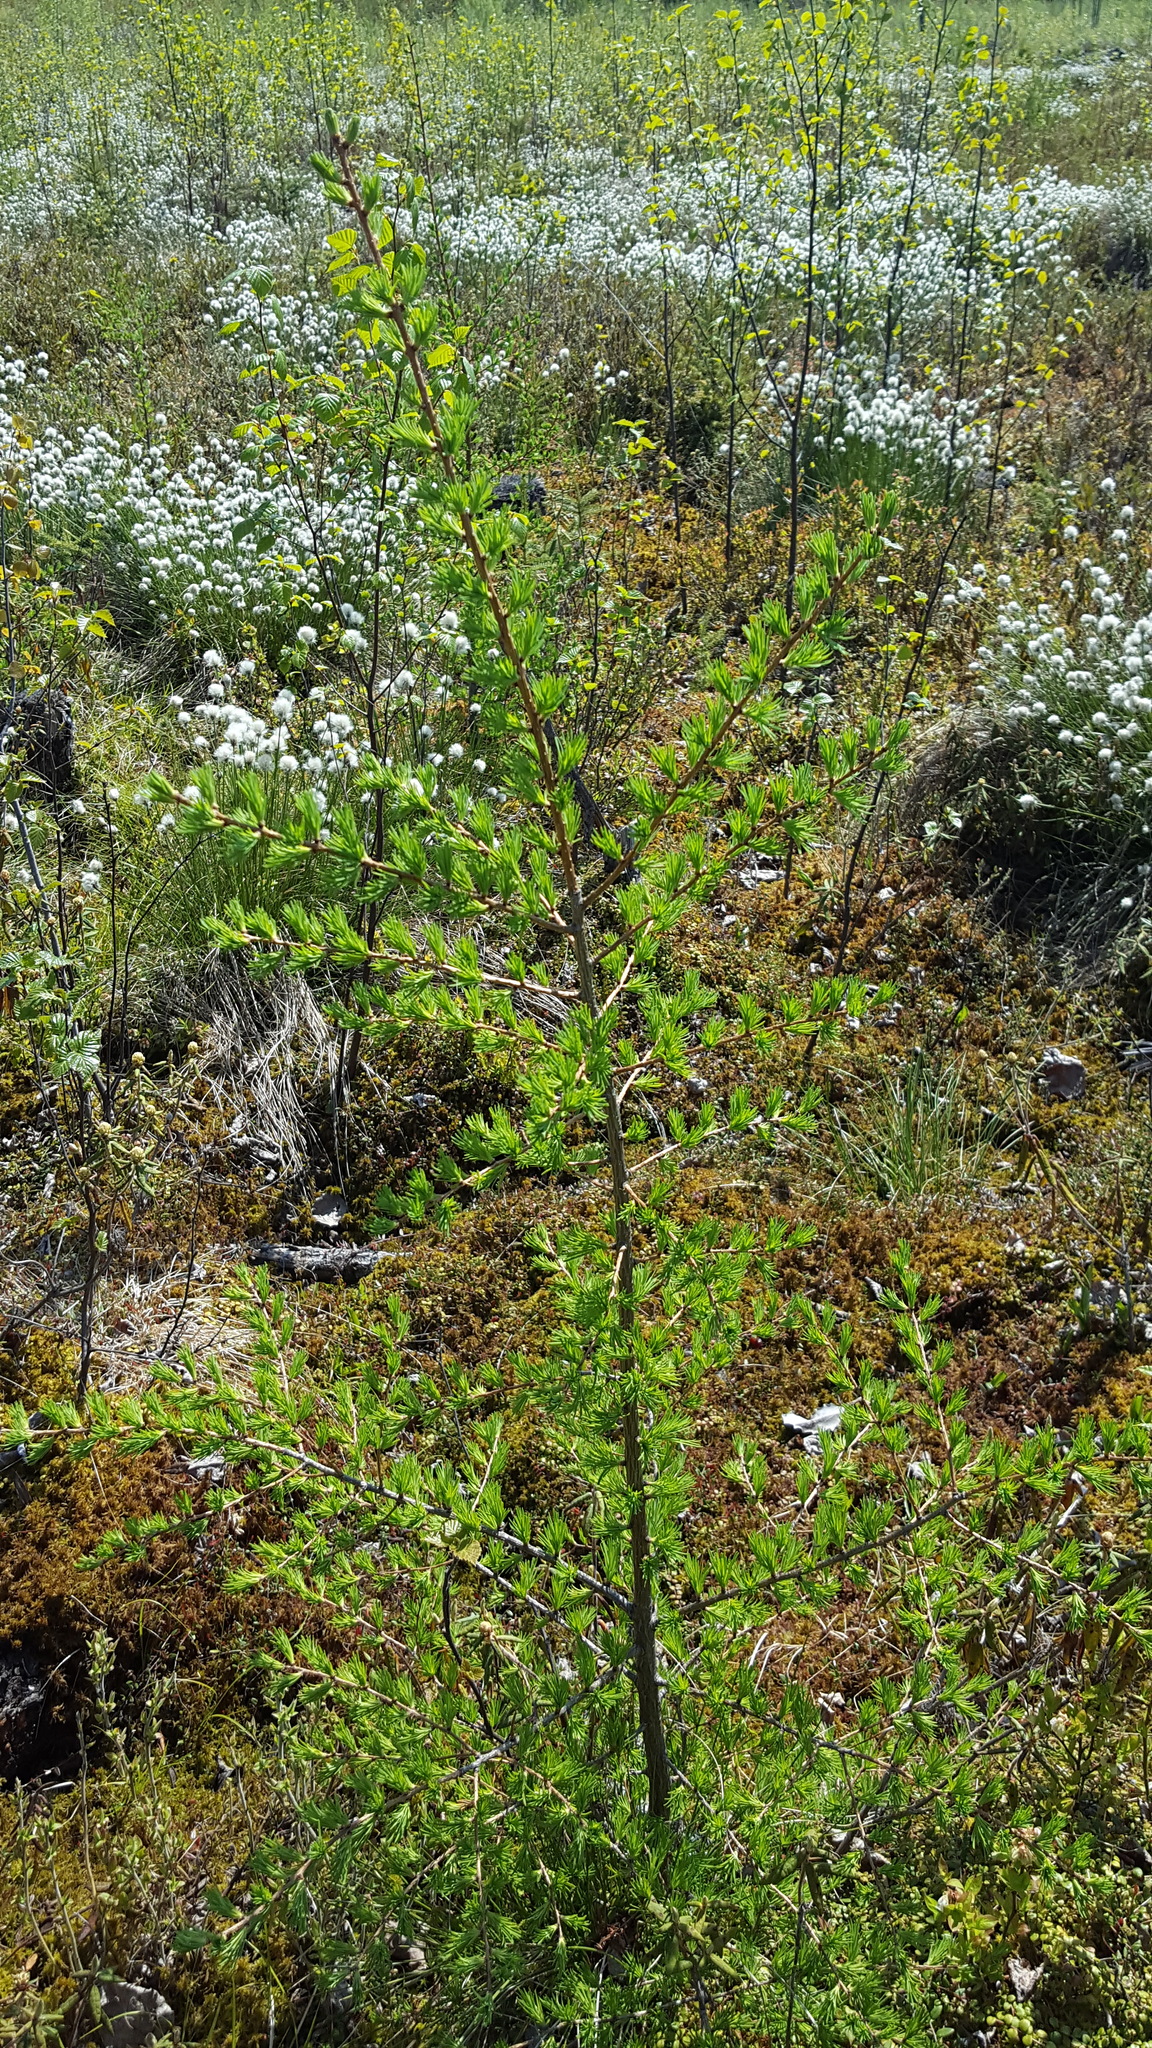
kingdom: Plantae
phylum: Tracheophyta
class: Pinopsida
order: Pinales
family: Pinaceae
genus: Larix
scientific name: Larix laricina
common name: American larch
